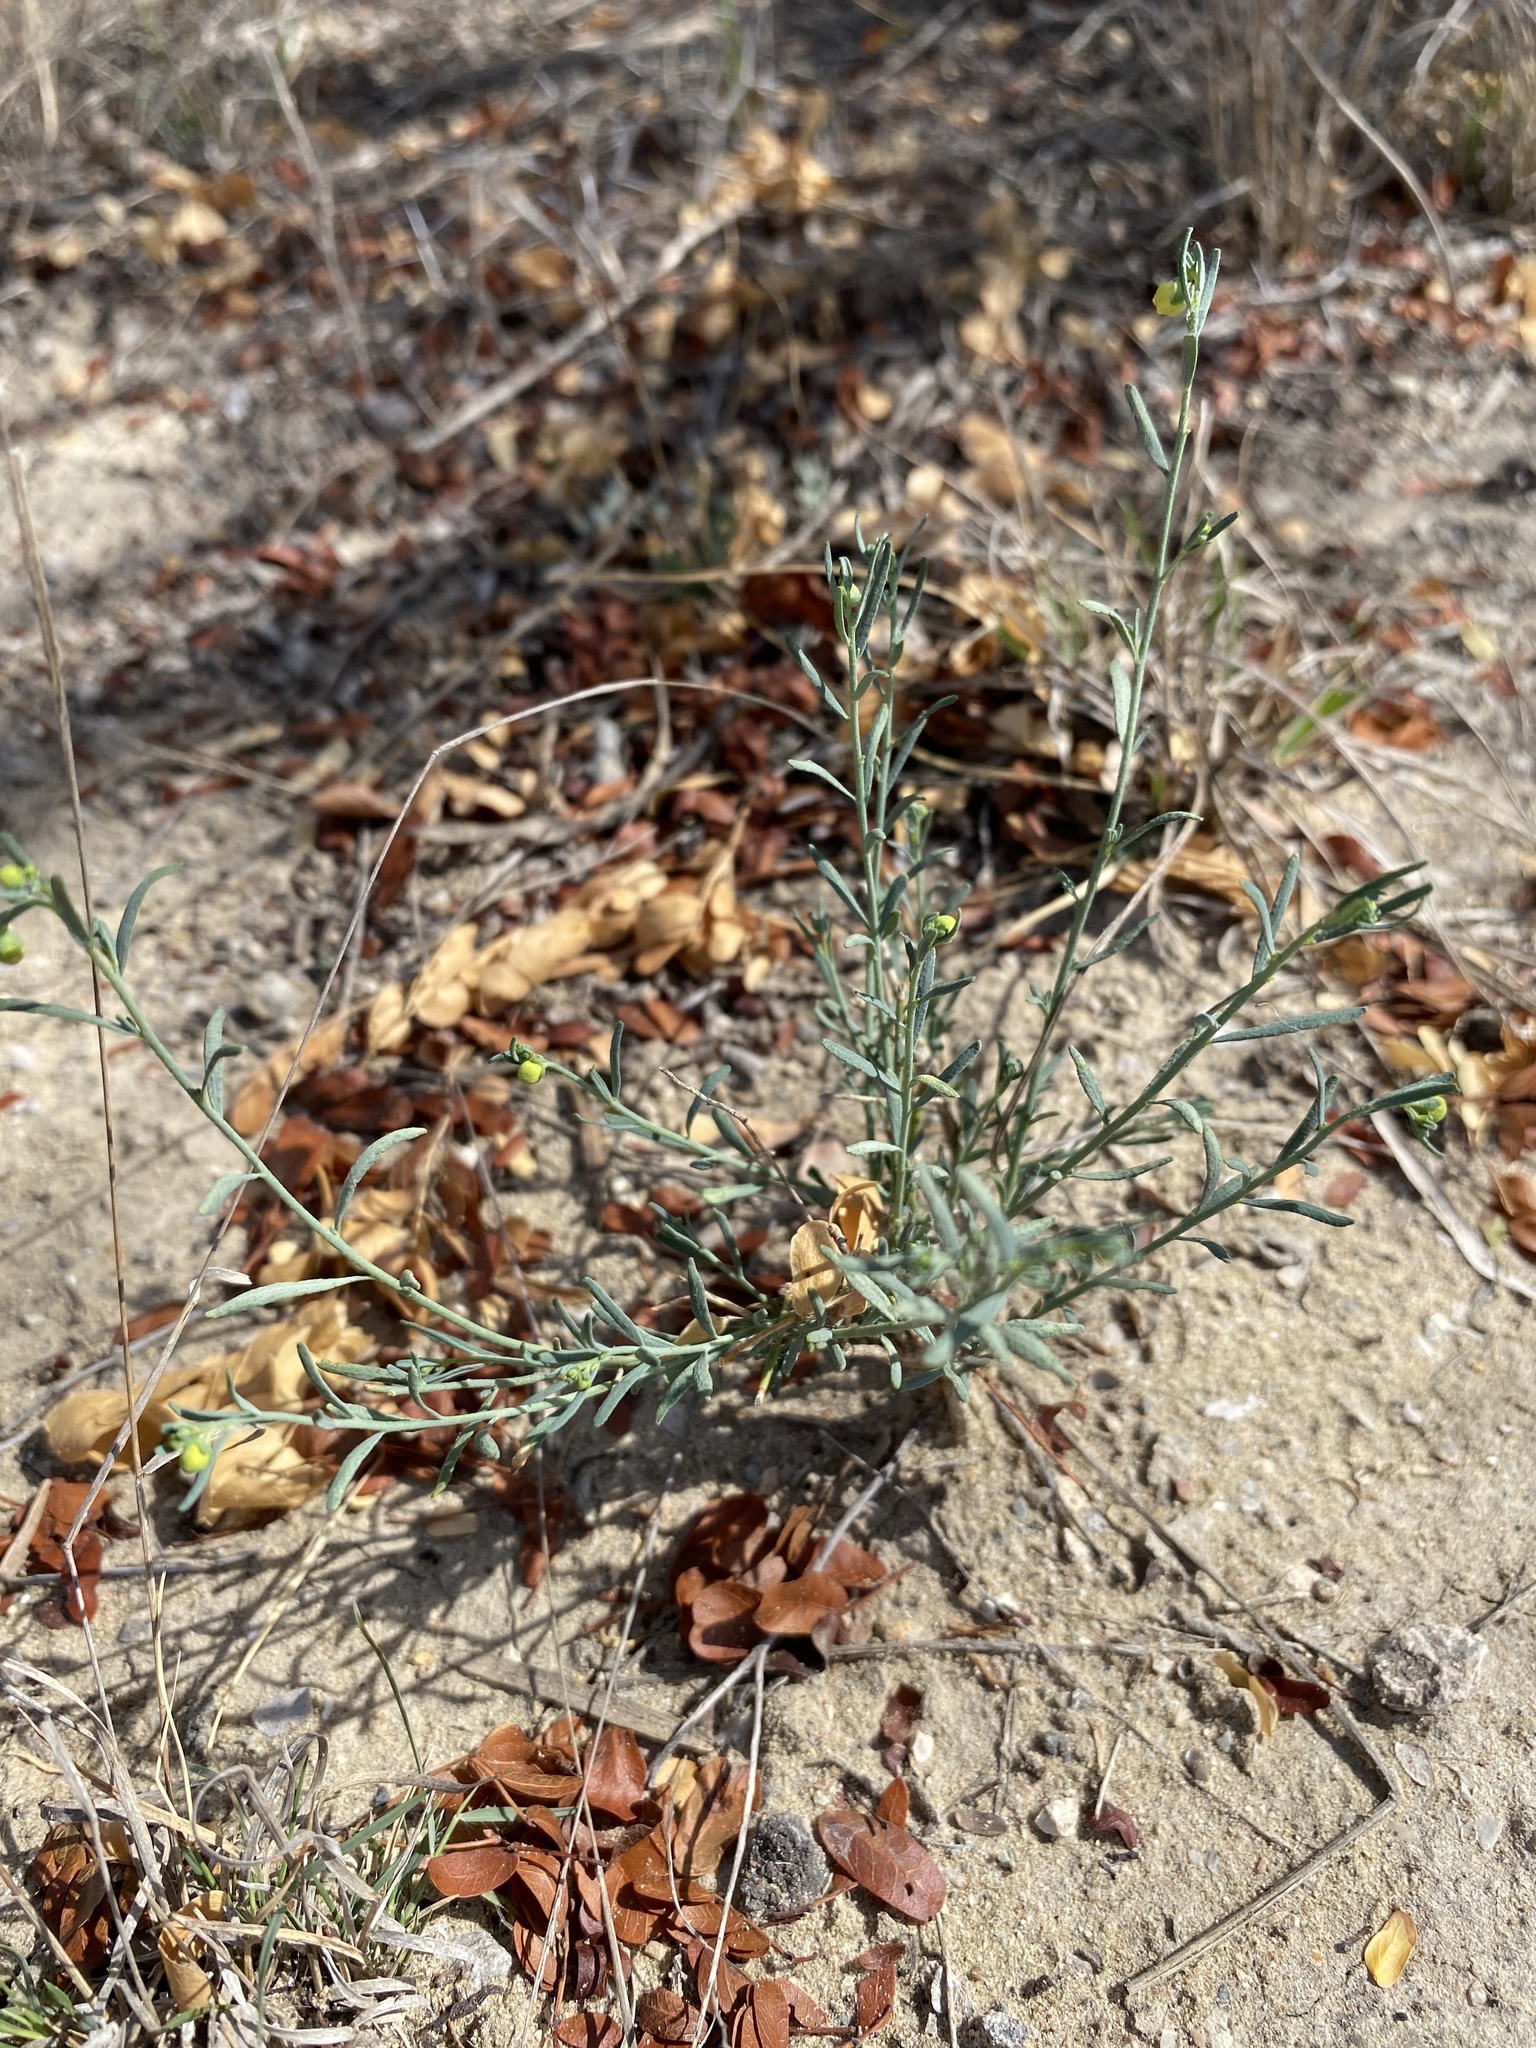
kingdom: Plantae
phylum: Tracheophyta
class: Magnoliopsida
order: Sapindales
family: Rutaceae
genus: Thamnosma
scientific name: Thamnosma texana
